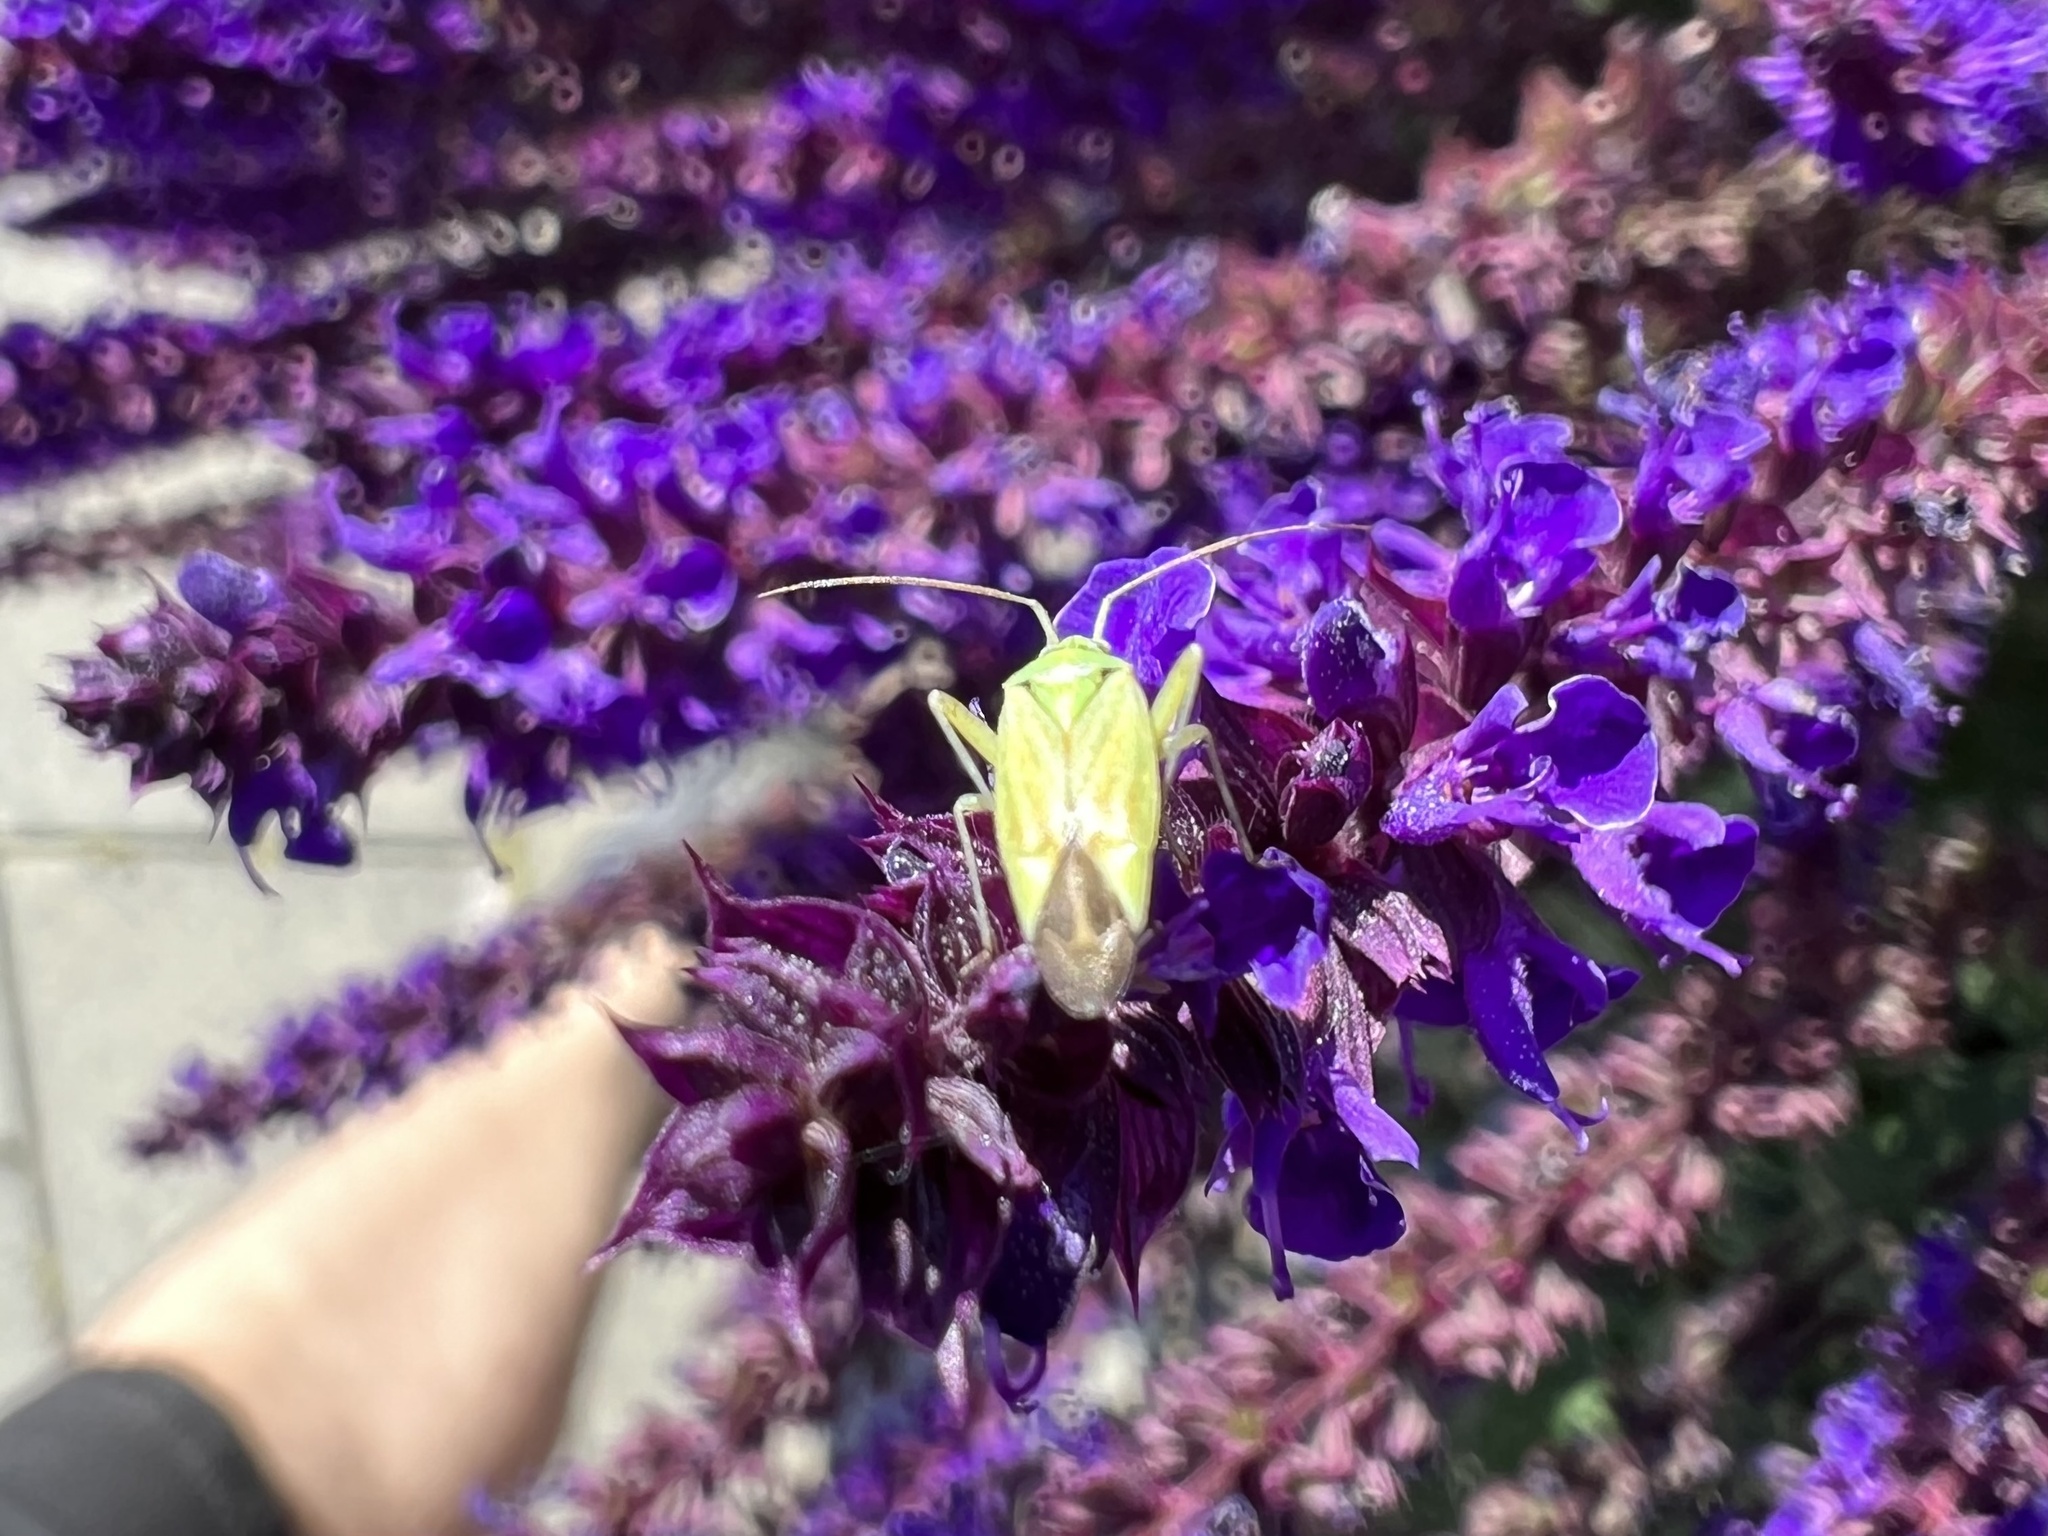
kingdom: Animalia
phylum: Arthropoda
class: Insecta
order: Hemiptera
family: Miridae
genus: Closterotomus
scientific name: Closterotomus norvegicus
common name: Plant bug
